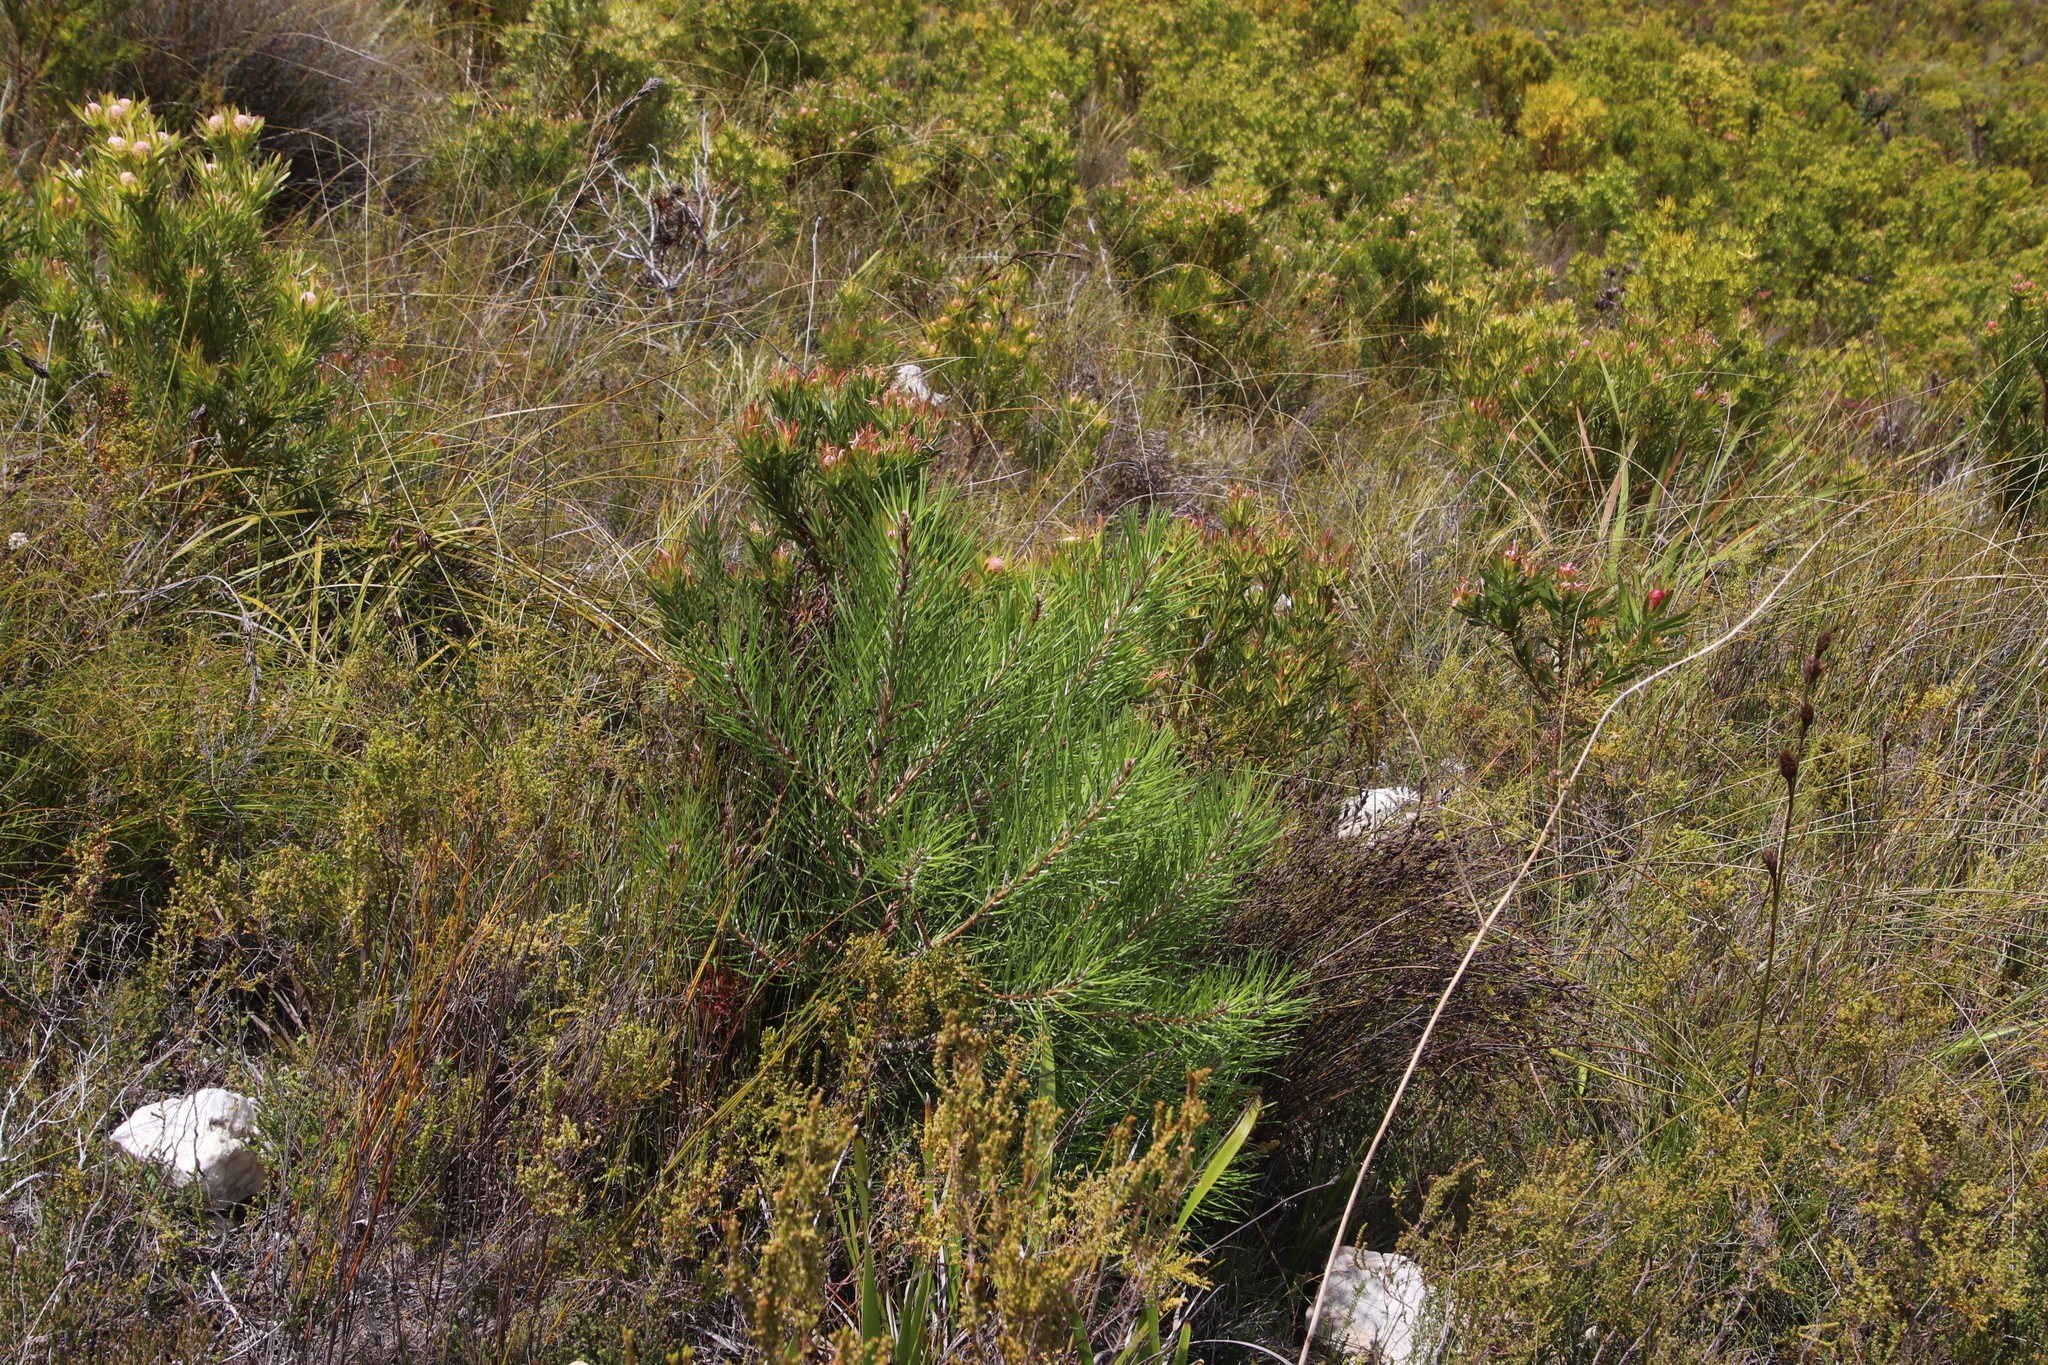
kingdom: Plantae
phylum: Tracheophyta
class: Pinopsida
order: Pinales
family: Pinaceae
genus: Pinus
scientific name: Pinus pinaster
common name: Maritime pine
